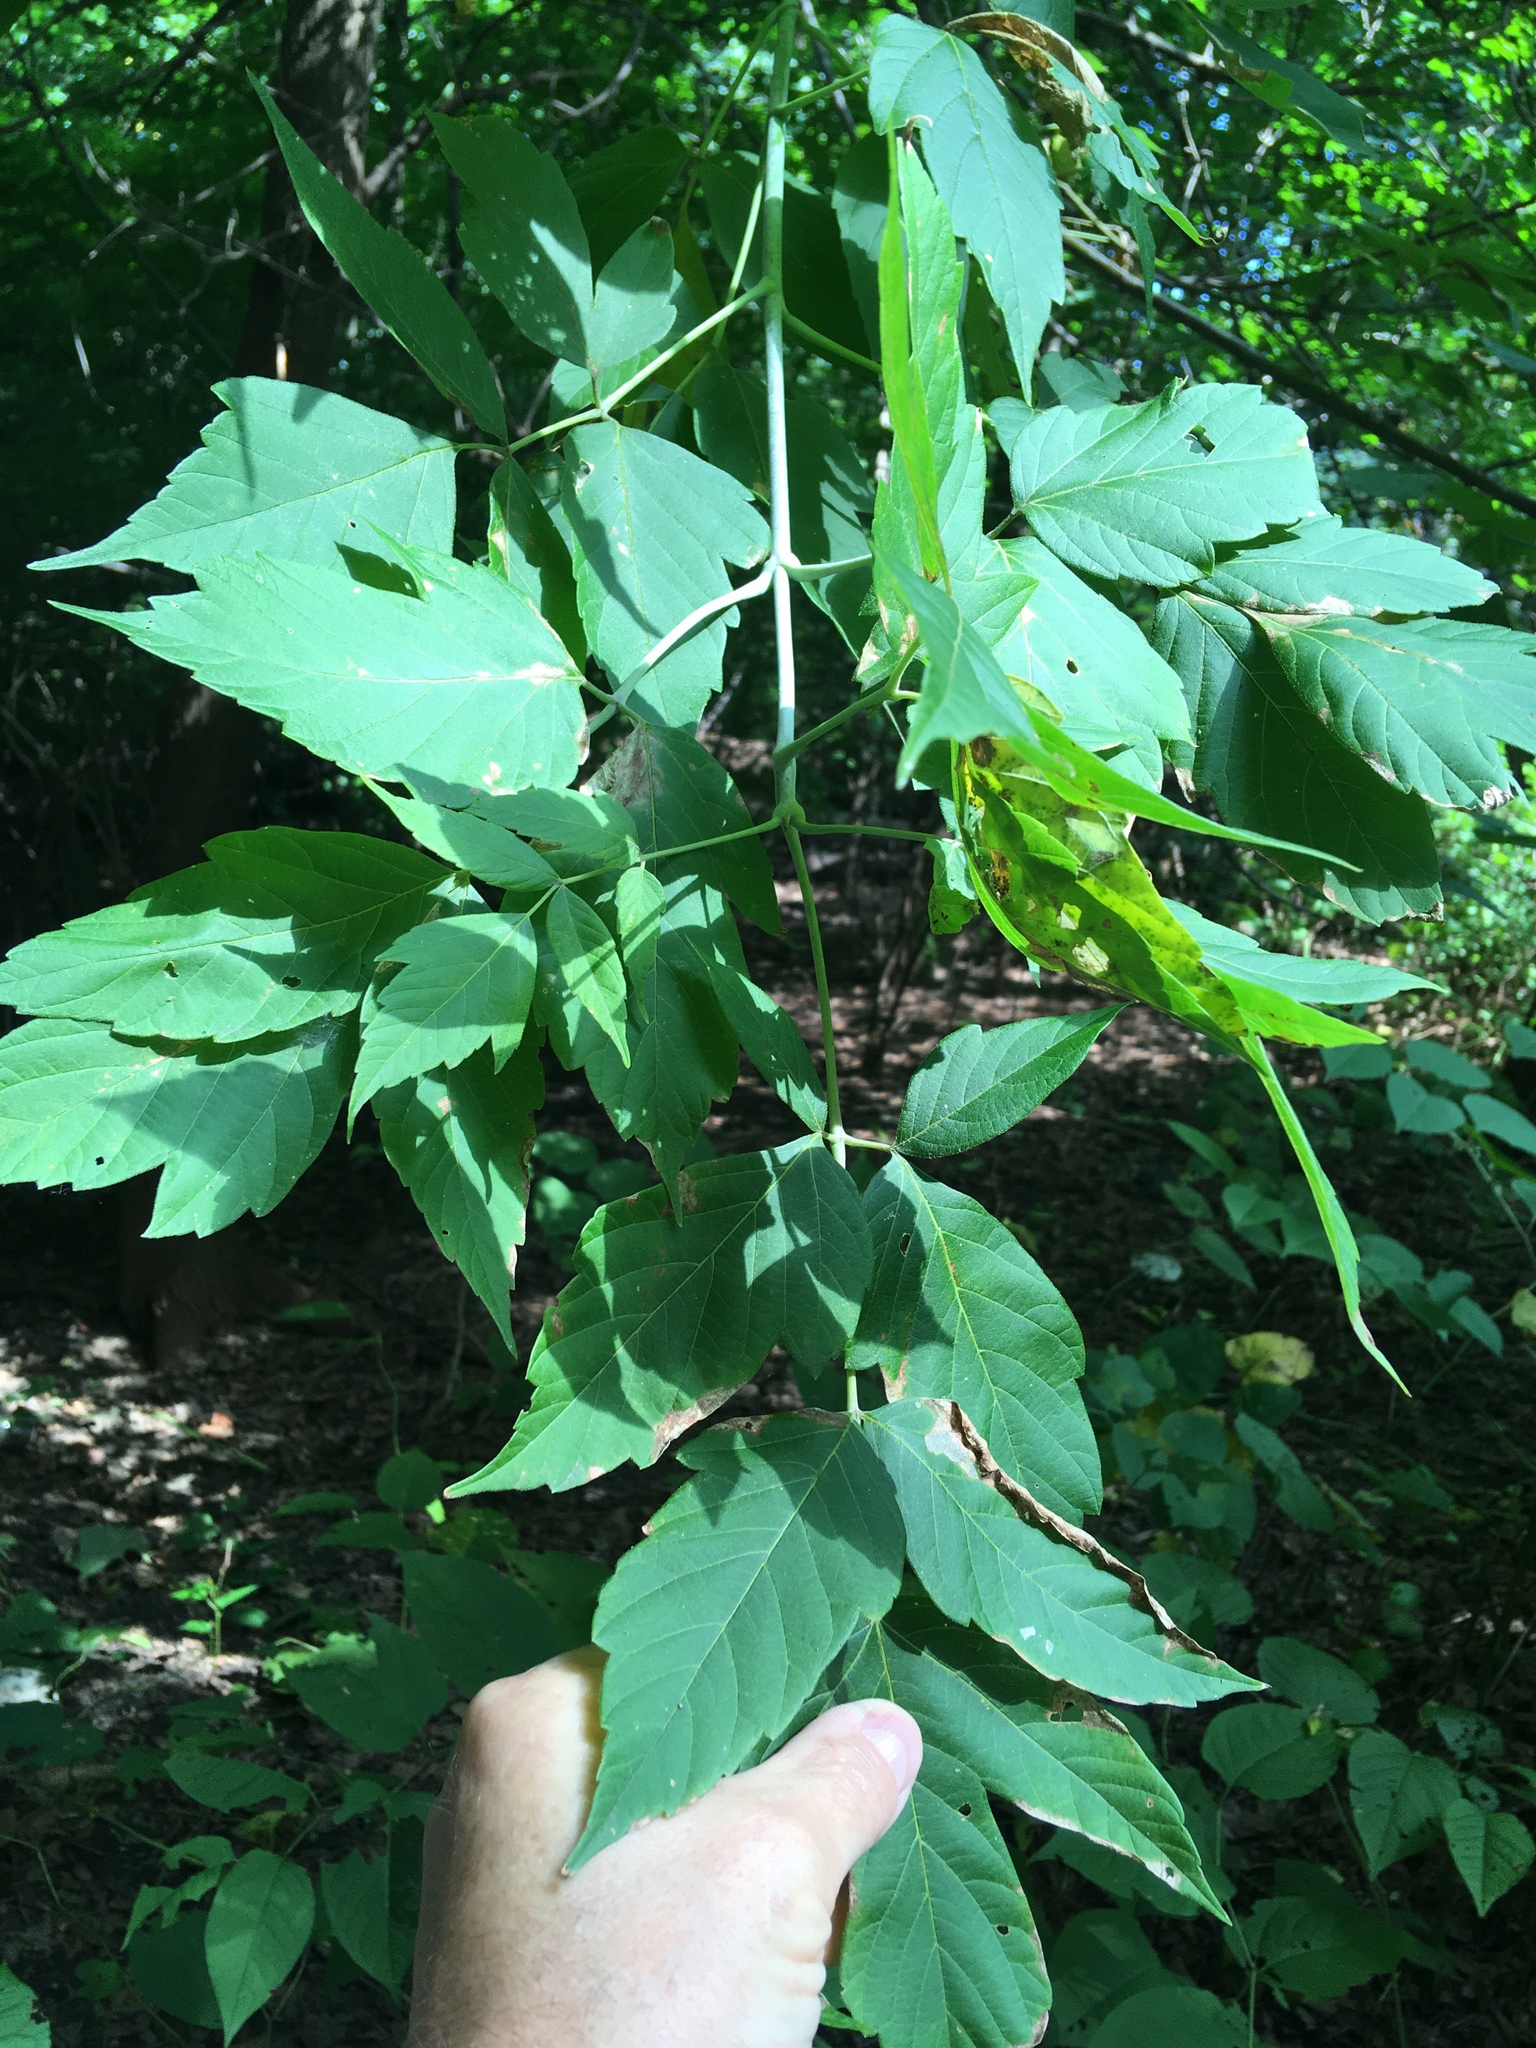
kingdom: Plantae
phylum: Tracheophyta
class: Magnoliopsida
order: Sapindales
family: Sapindaceae
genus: Acer
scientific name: Acer negundo
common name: Ashleaf maple
